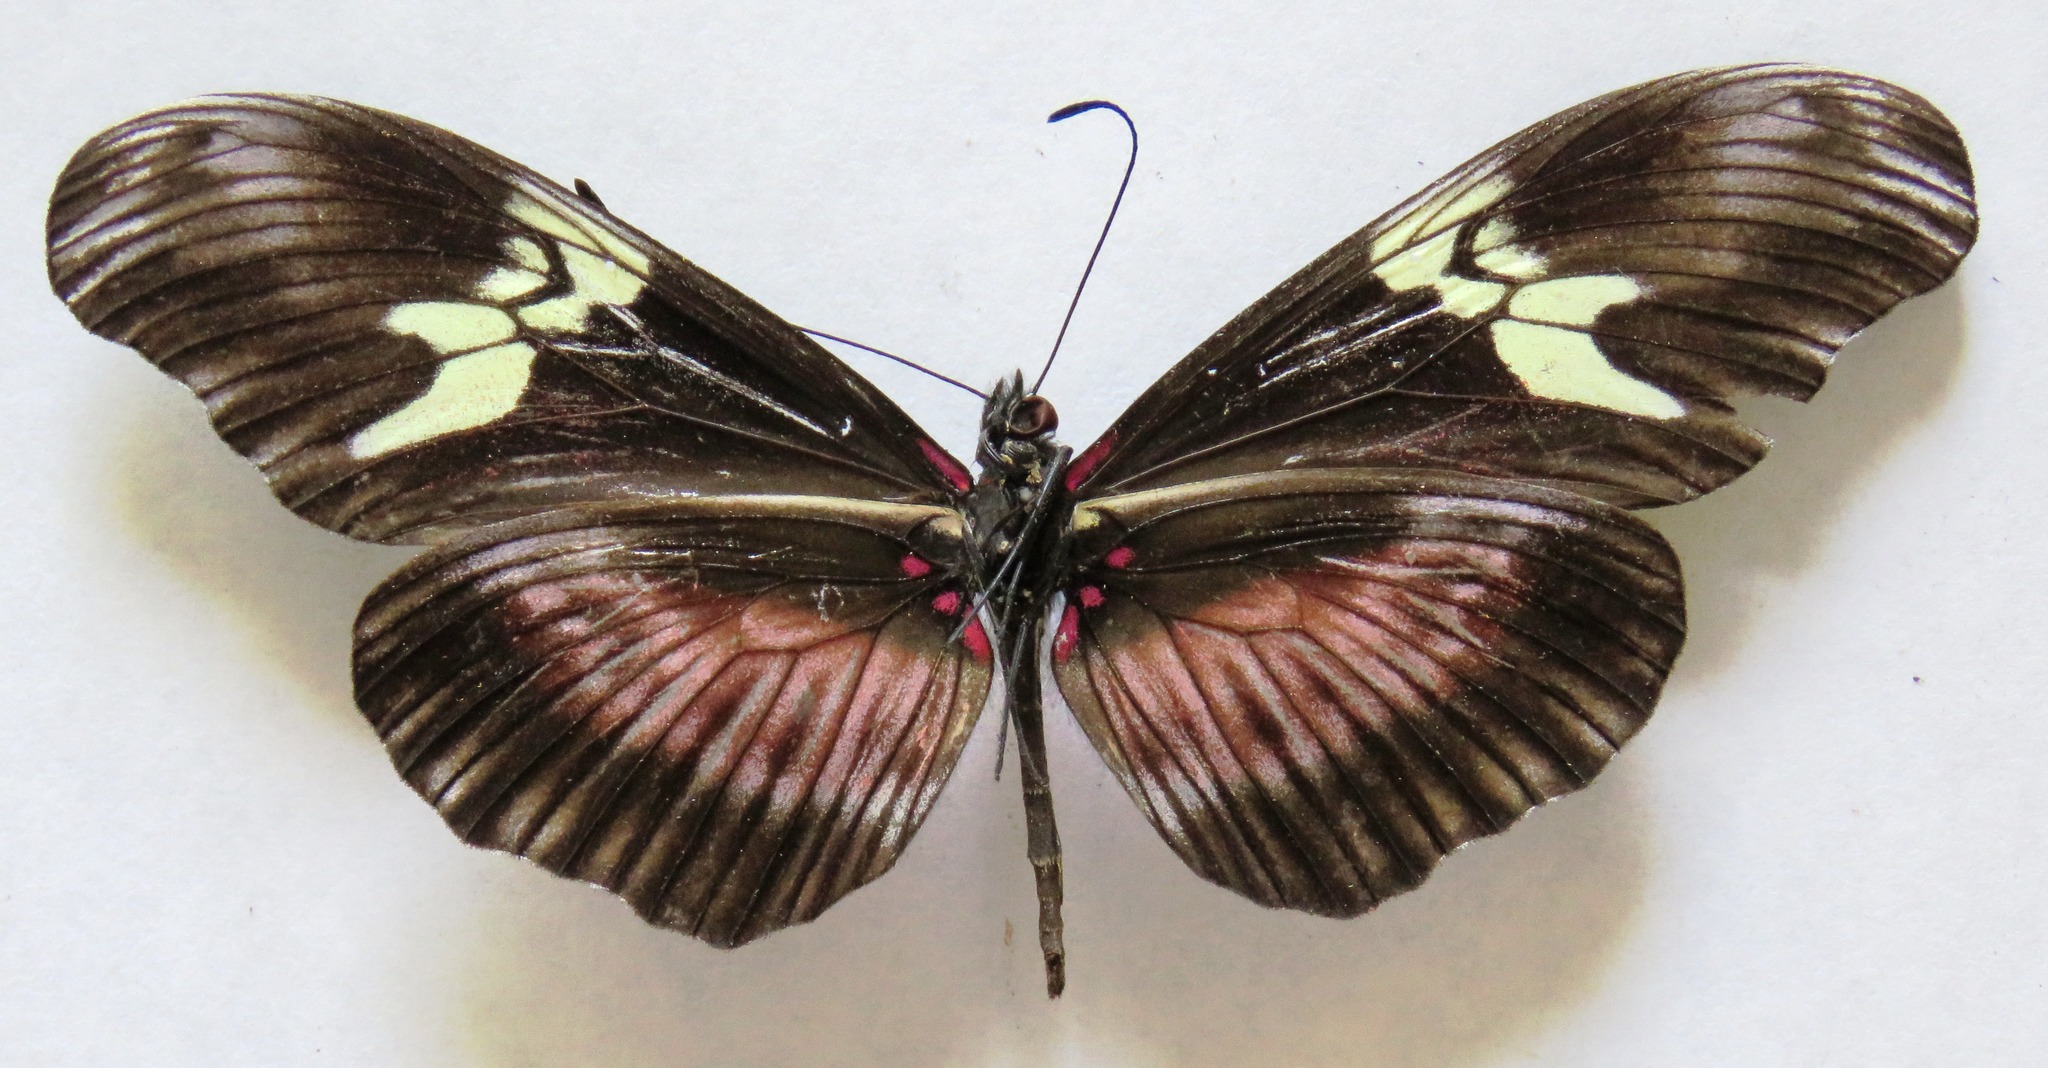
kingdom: Animalia
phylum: Arthropoda
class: Insecta
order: Lepidoptera
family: Nymphalidae
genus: Heliconius
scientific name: Heliconius hortense
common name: Mexican longwing
